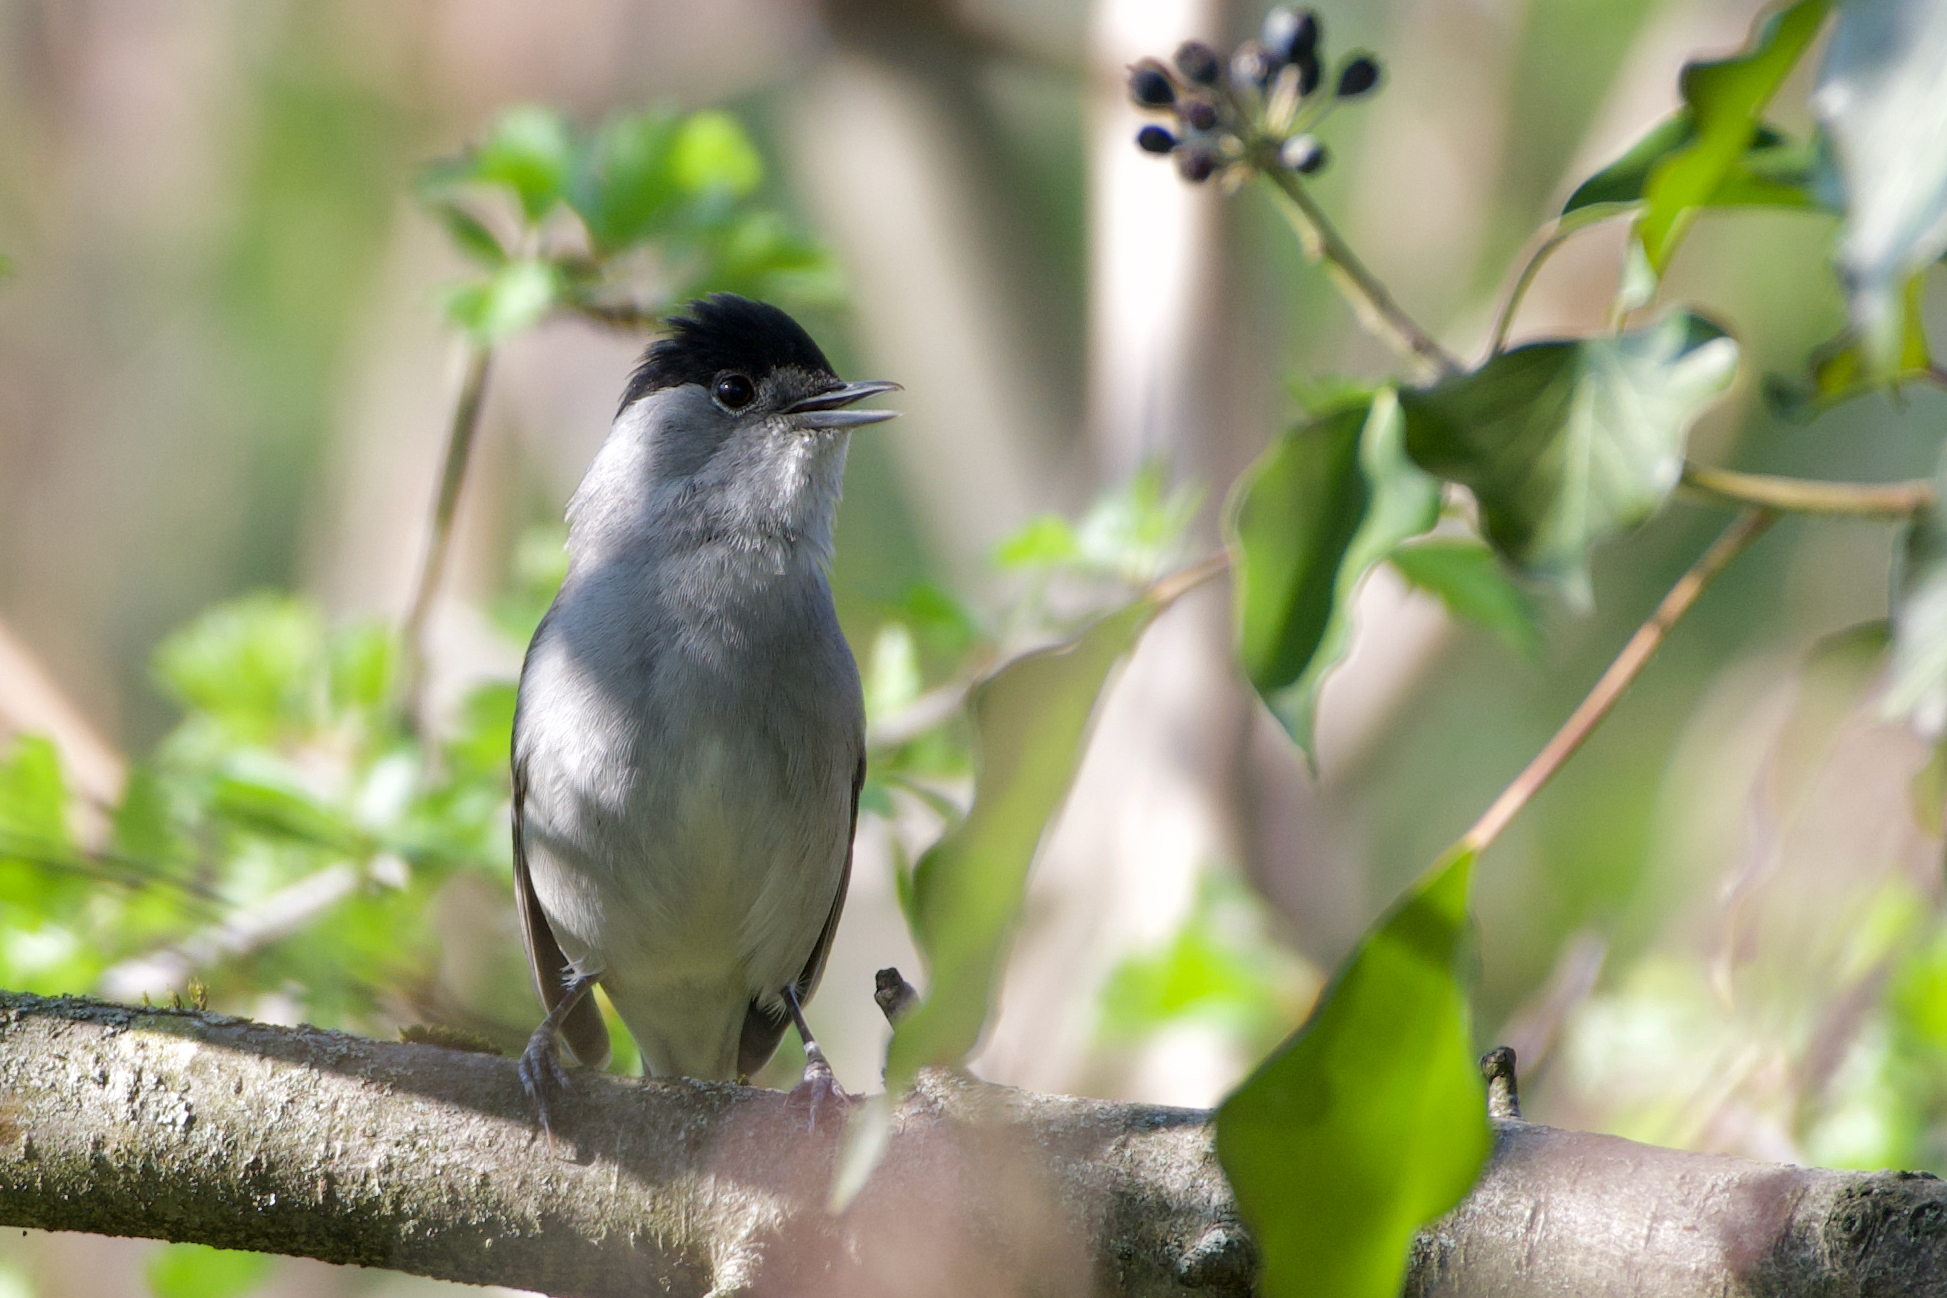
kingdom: Animalia
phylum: Chordata
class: Aves
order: Passeriformes
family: Sylviidae
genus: Sylvia
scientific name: Sylvia atricapilla
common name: Eurasian blackcap
